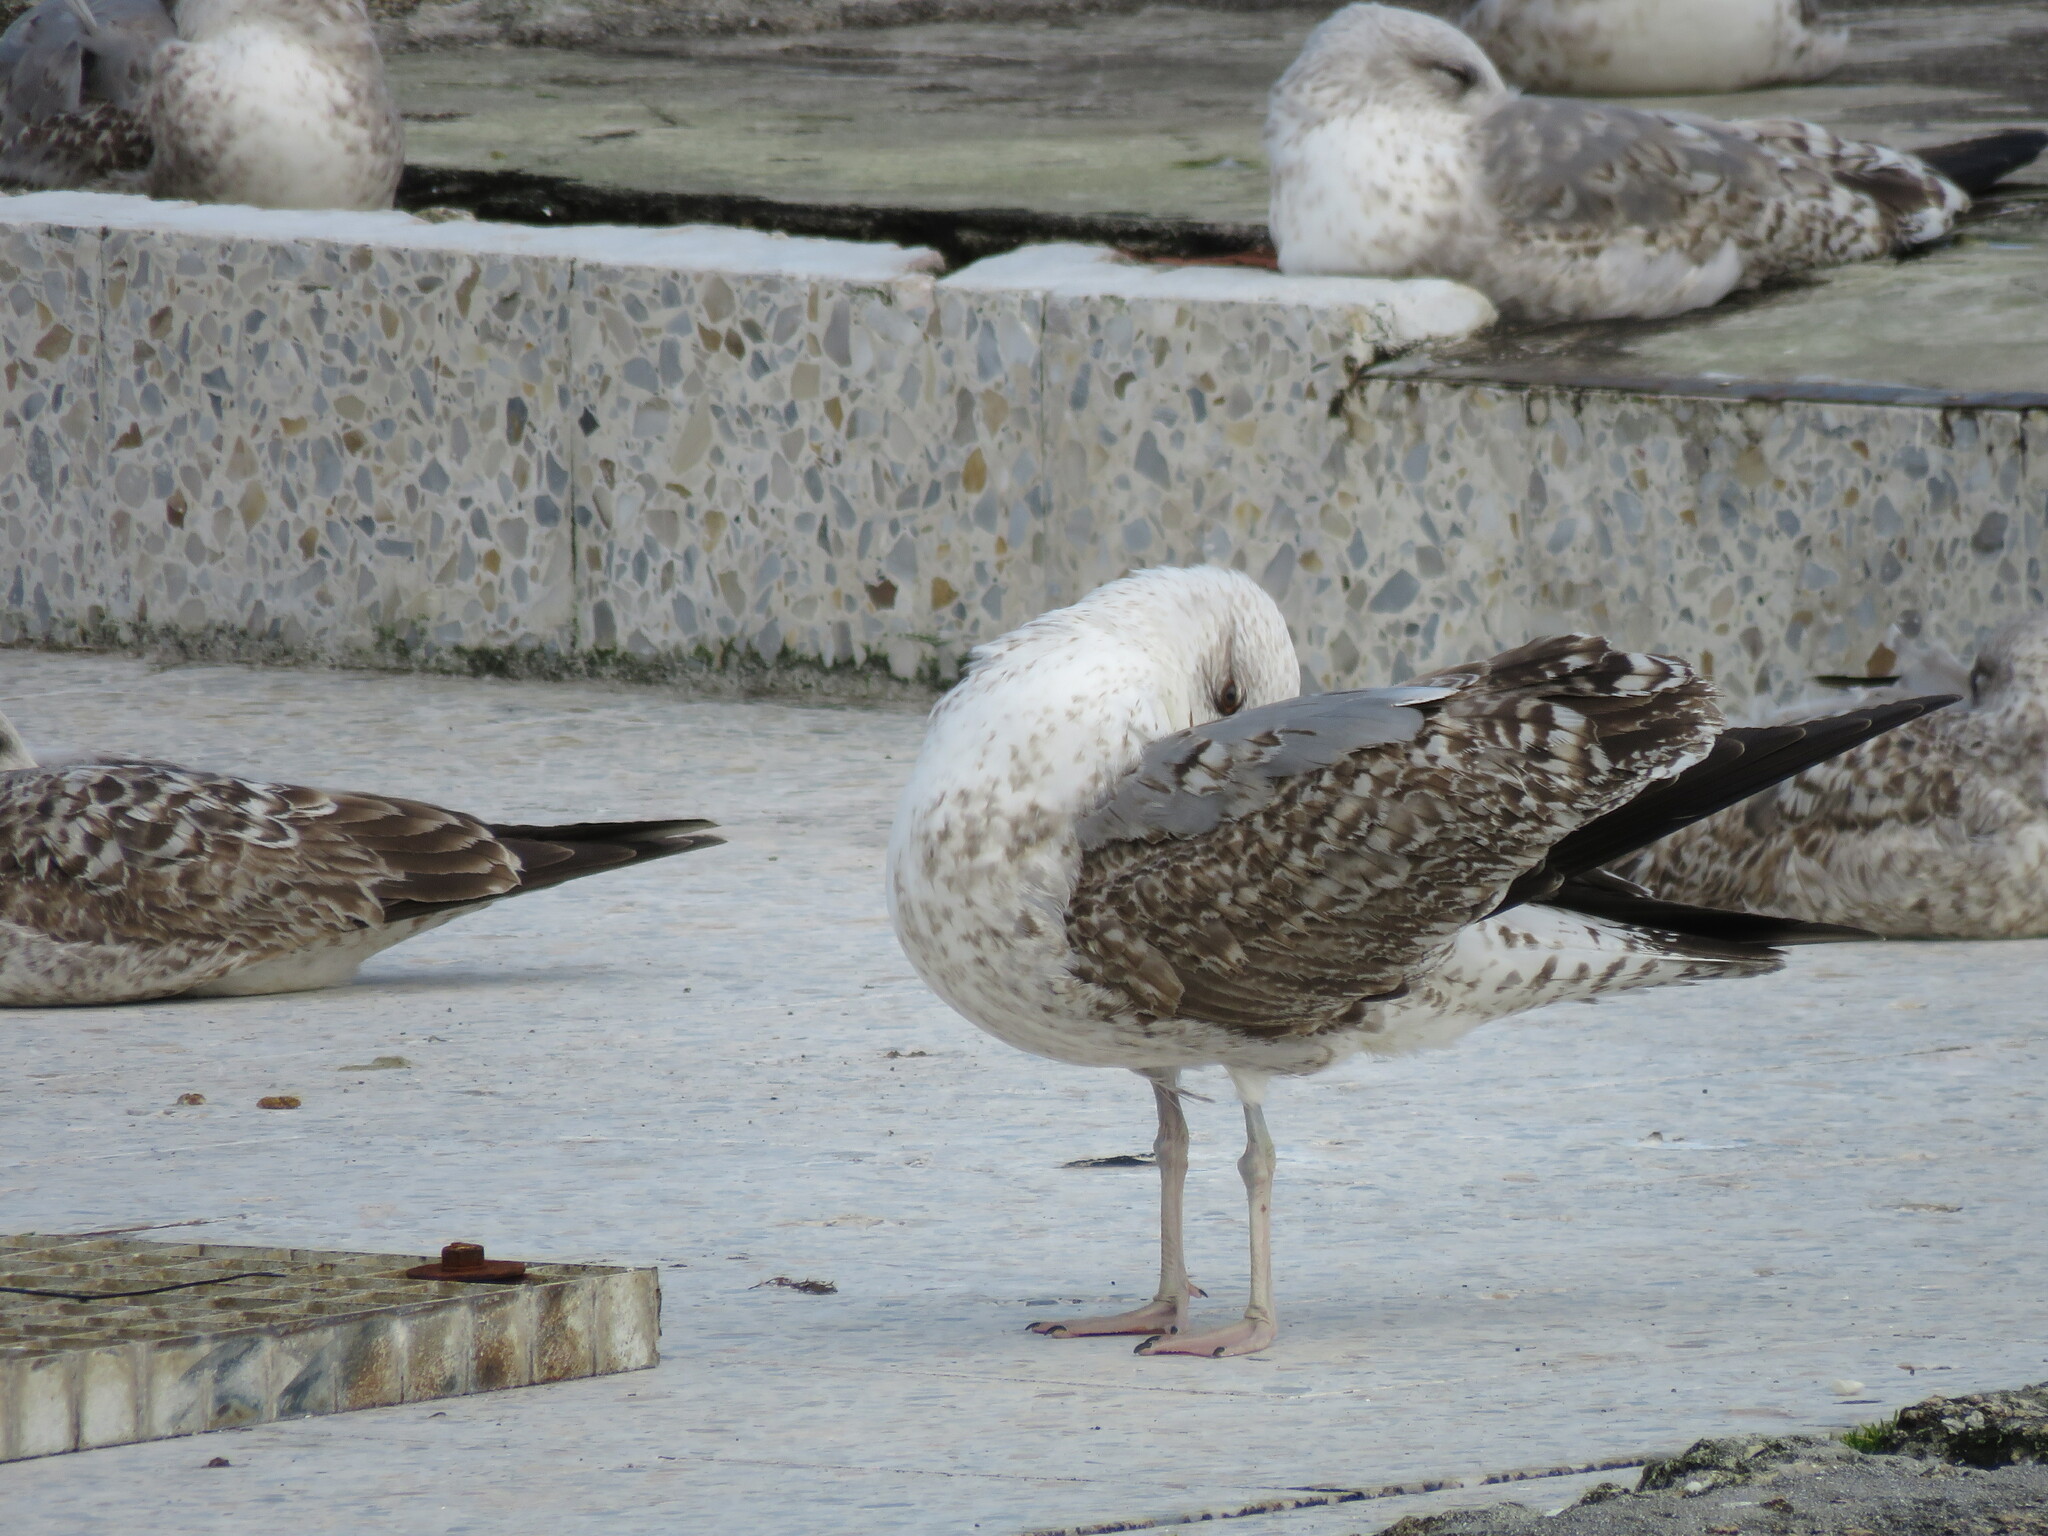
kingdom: Animalia
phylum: Chordata
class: Aves
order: Charadriiformes
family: Laridae
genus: Larus
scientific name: Larus michahellis
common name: Yellow-legged gull
